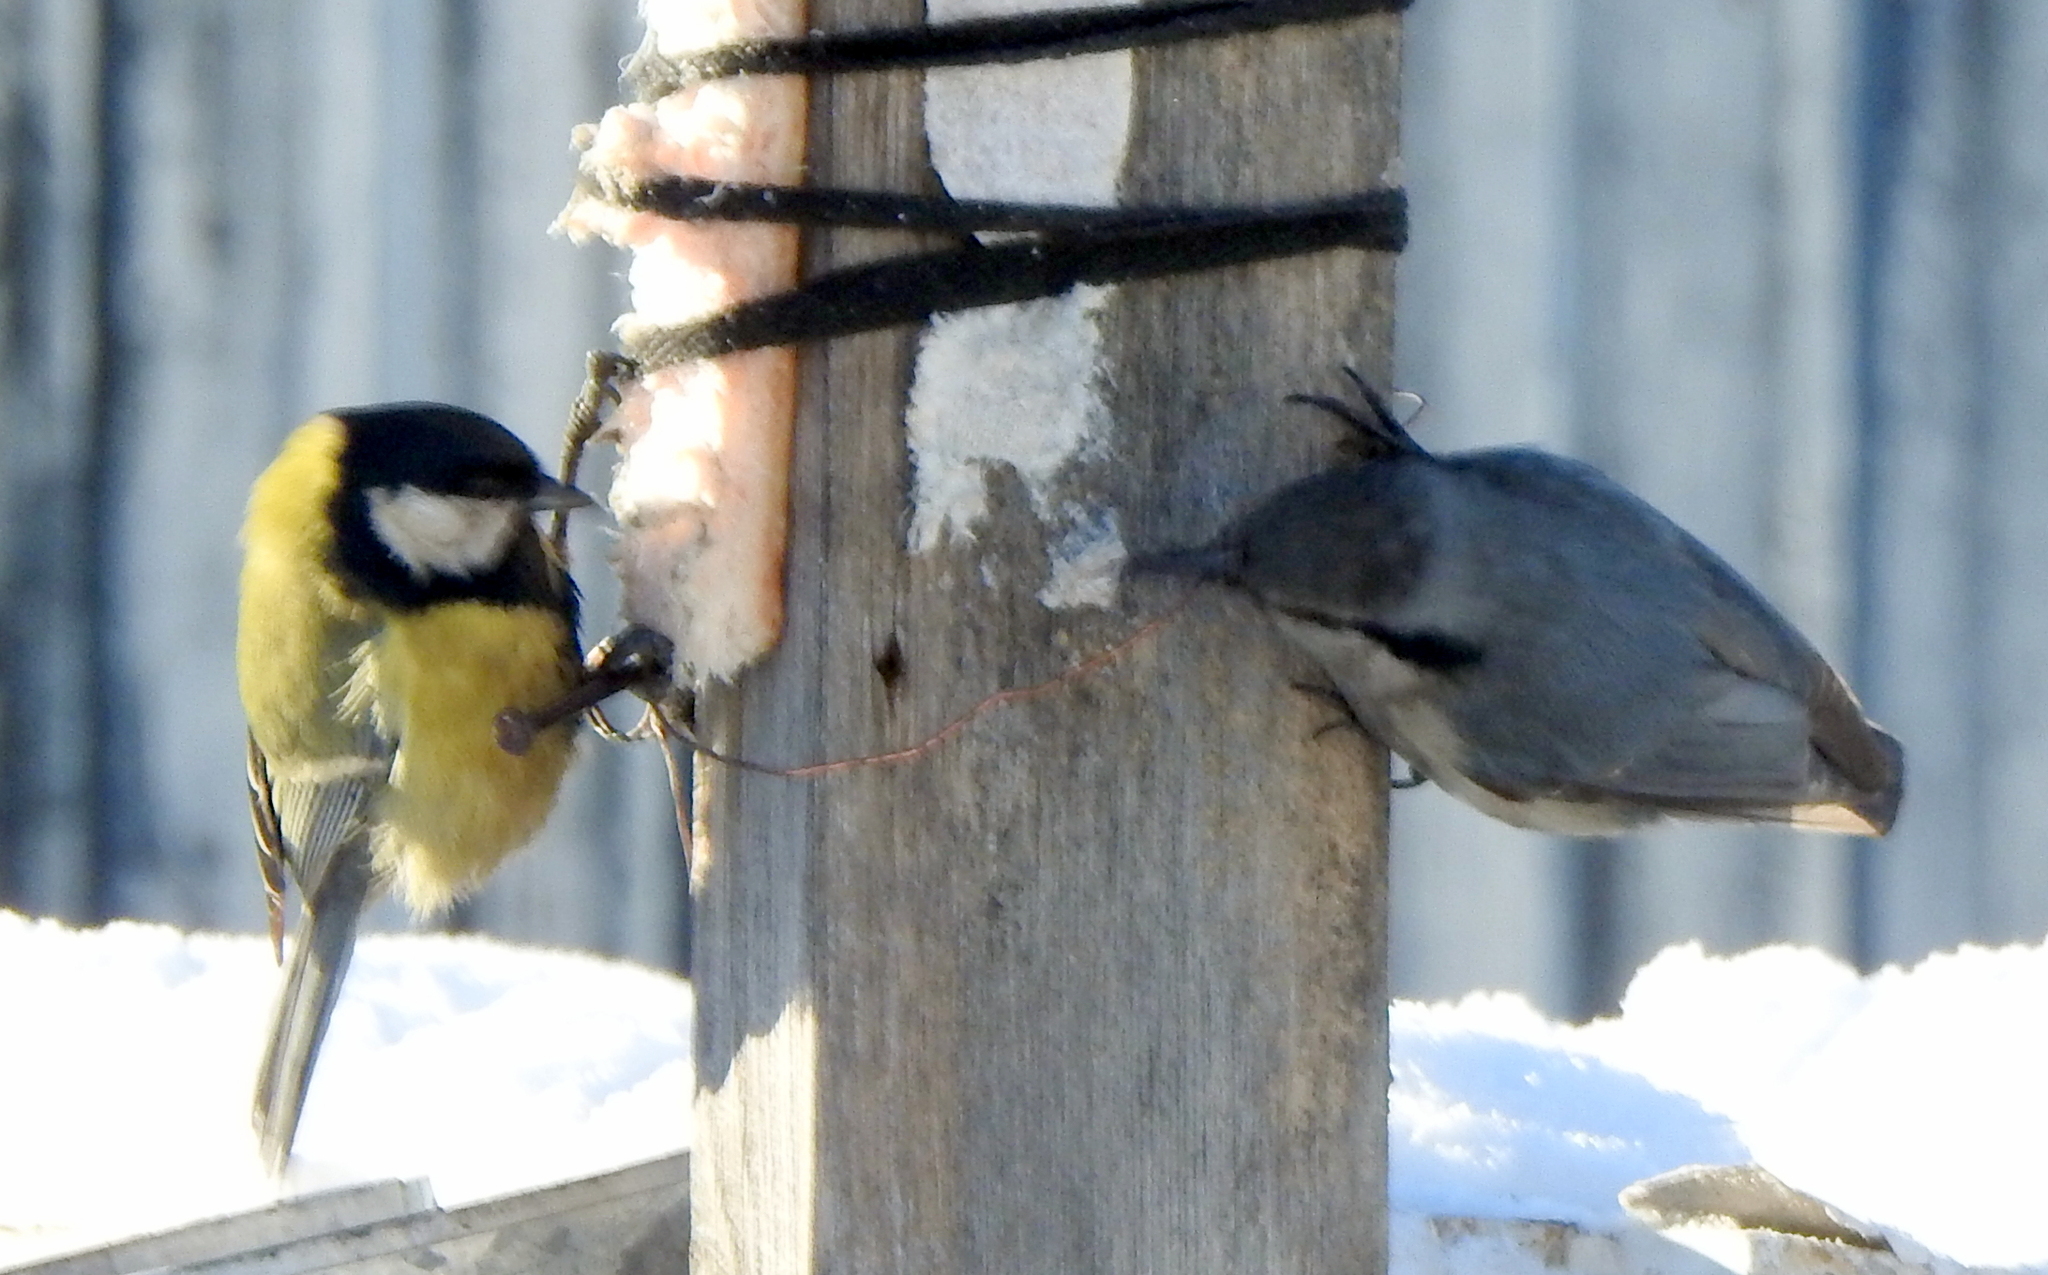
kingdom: Animalia
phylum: Chordata
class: Aves
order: Passeriformes
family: Paridae
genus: Parus
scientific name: Parus major
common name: Great tit
